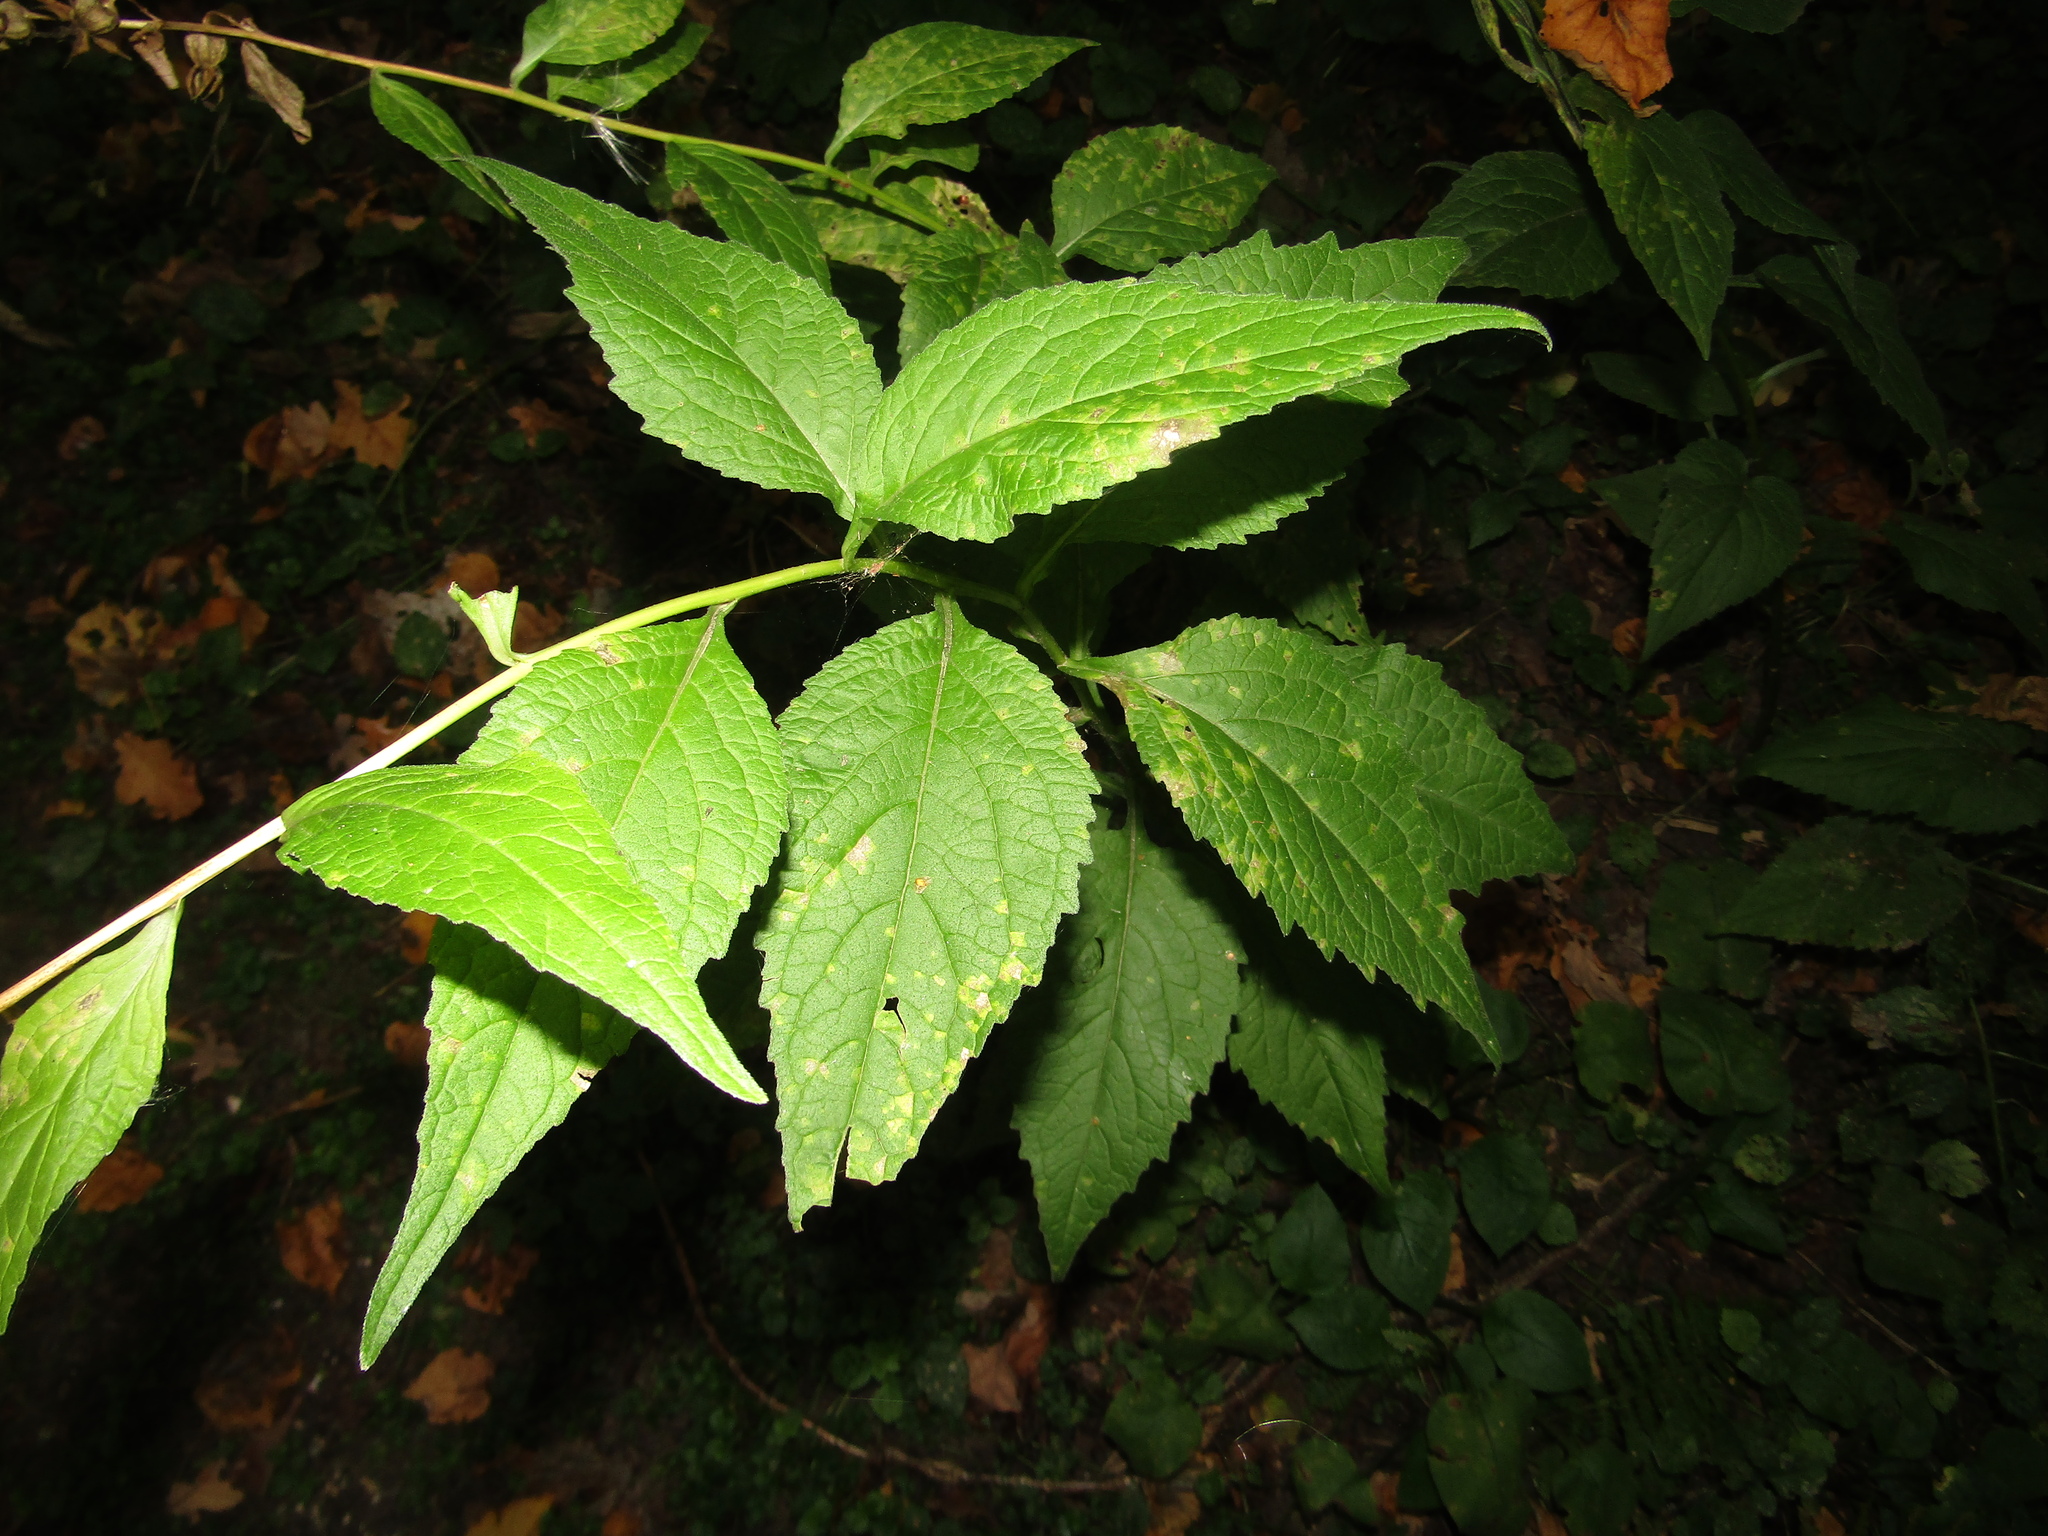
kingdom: Plantae
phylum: Tracheophyta
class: Magnoliopsida
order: Asterales
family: Campanulaceae
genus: Campanula
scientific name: Campanula latifolia
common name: Giant bellflower
